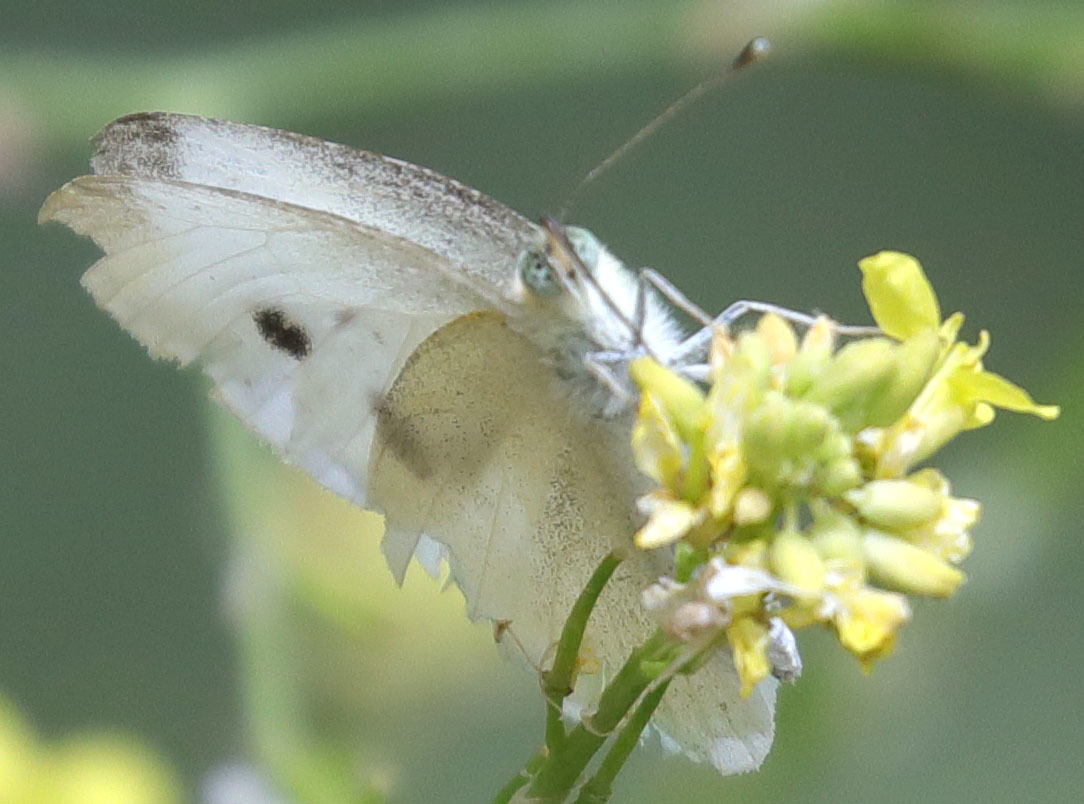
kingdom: Animalia
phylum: Arthropoda
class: Insecta
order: Lepidoptera
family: Pieridae
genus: Pieris
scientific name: Pieris rapae
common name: Small white
